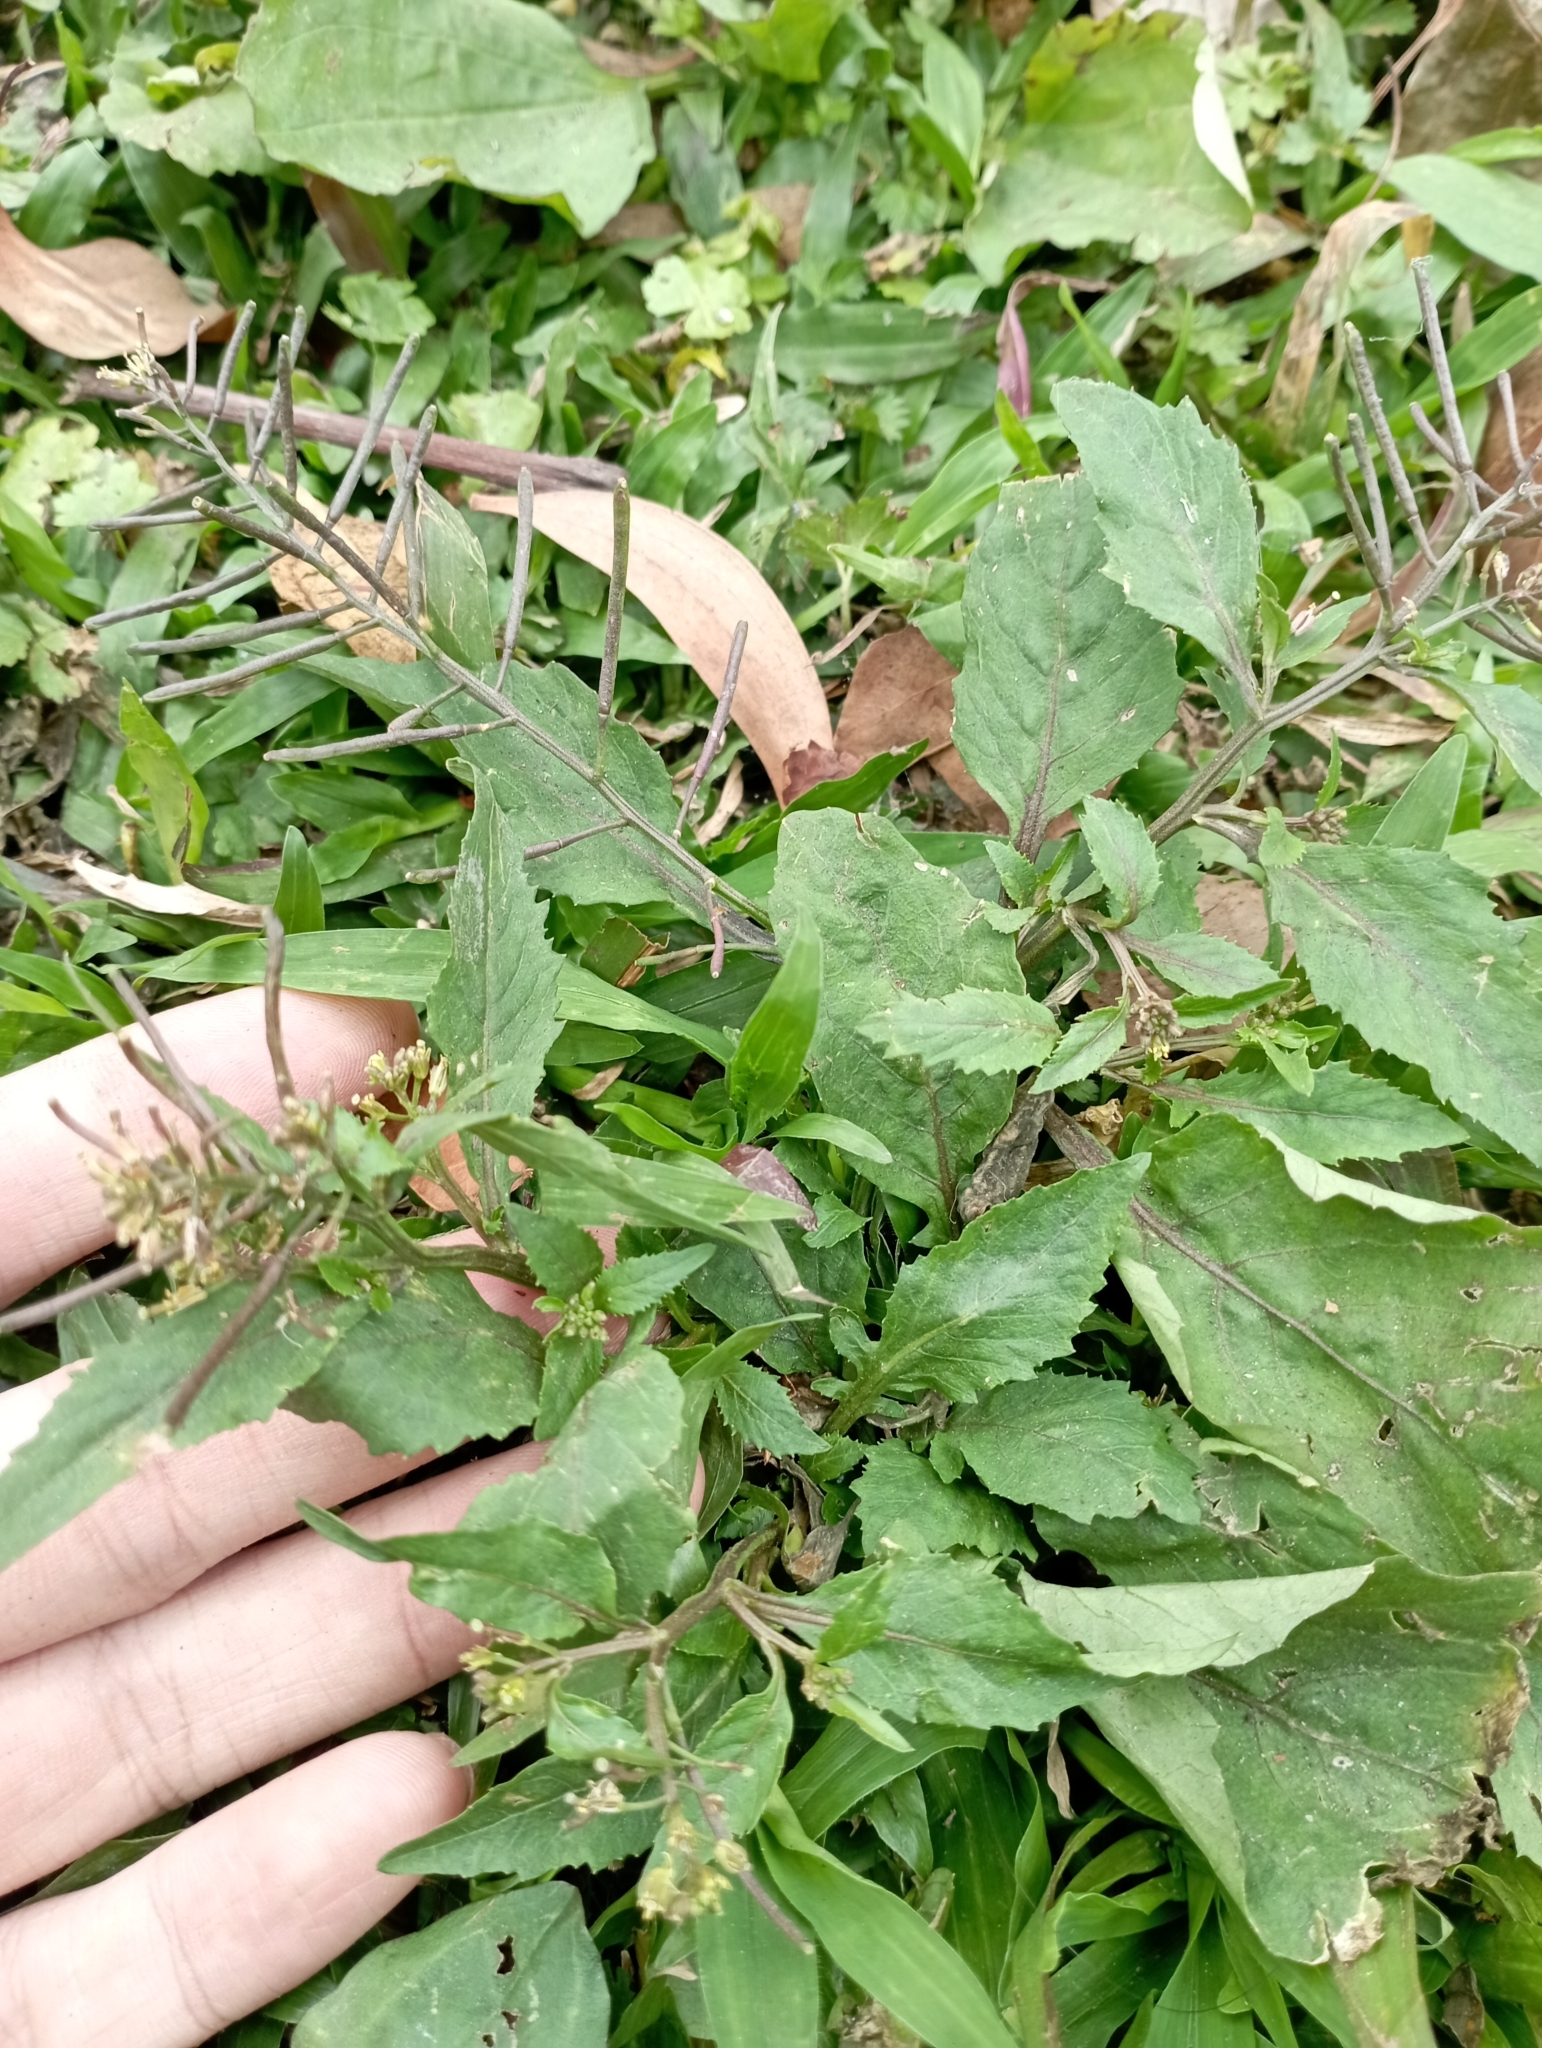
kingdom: Plantae
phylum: Tracheophyta
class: Magnoliopsida
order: Brassicales
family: Brassicaceae
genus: Rorippa
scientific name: Rorippa indica
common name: Variableleaf yellowcress
